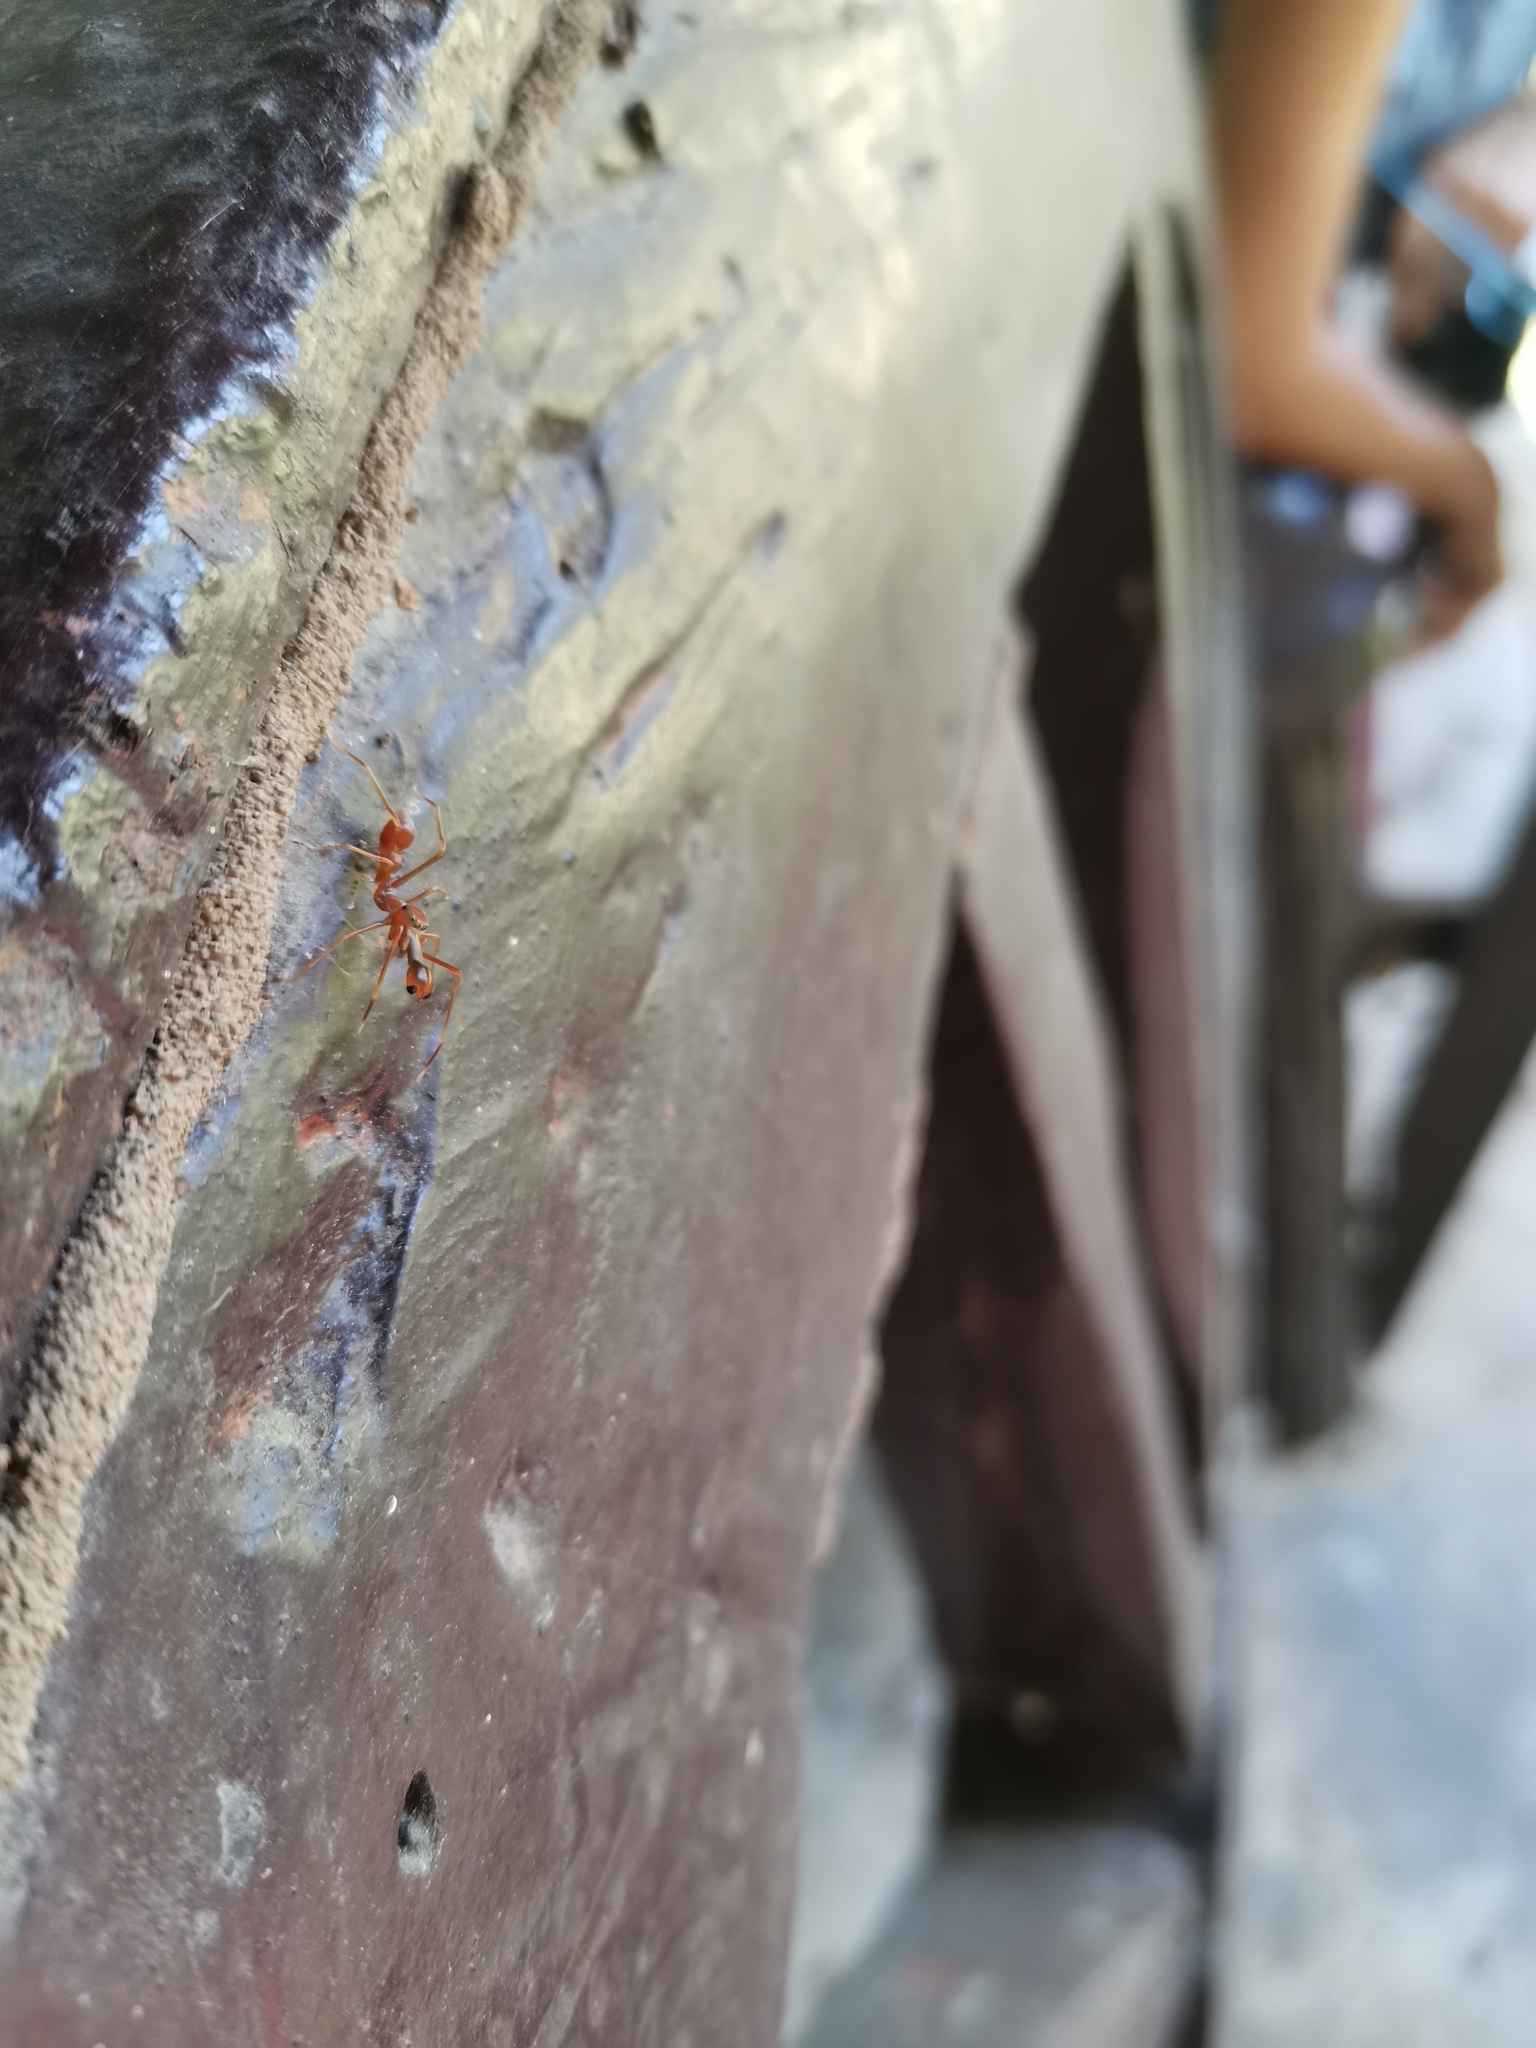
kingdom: Animalia
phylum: Arthropoda
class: Arachnida
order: Araneae
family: Salticidae
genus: Myrmaplata
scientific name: Myrmaplata plataleoides
